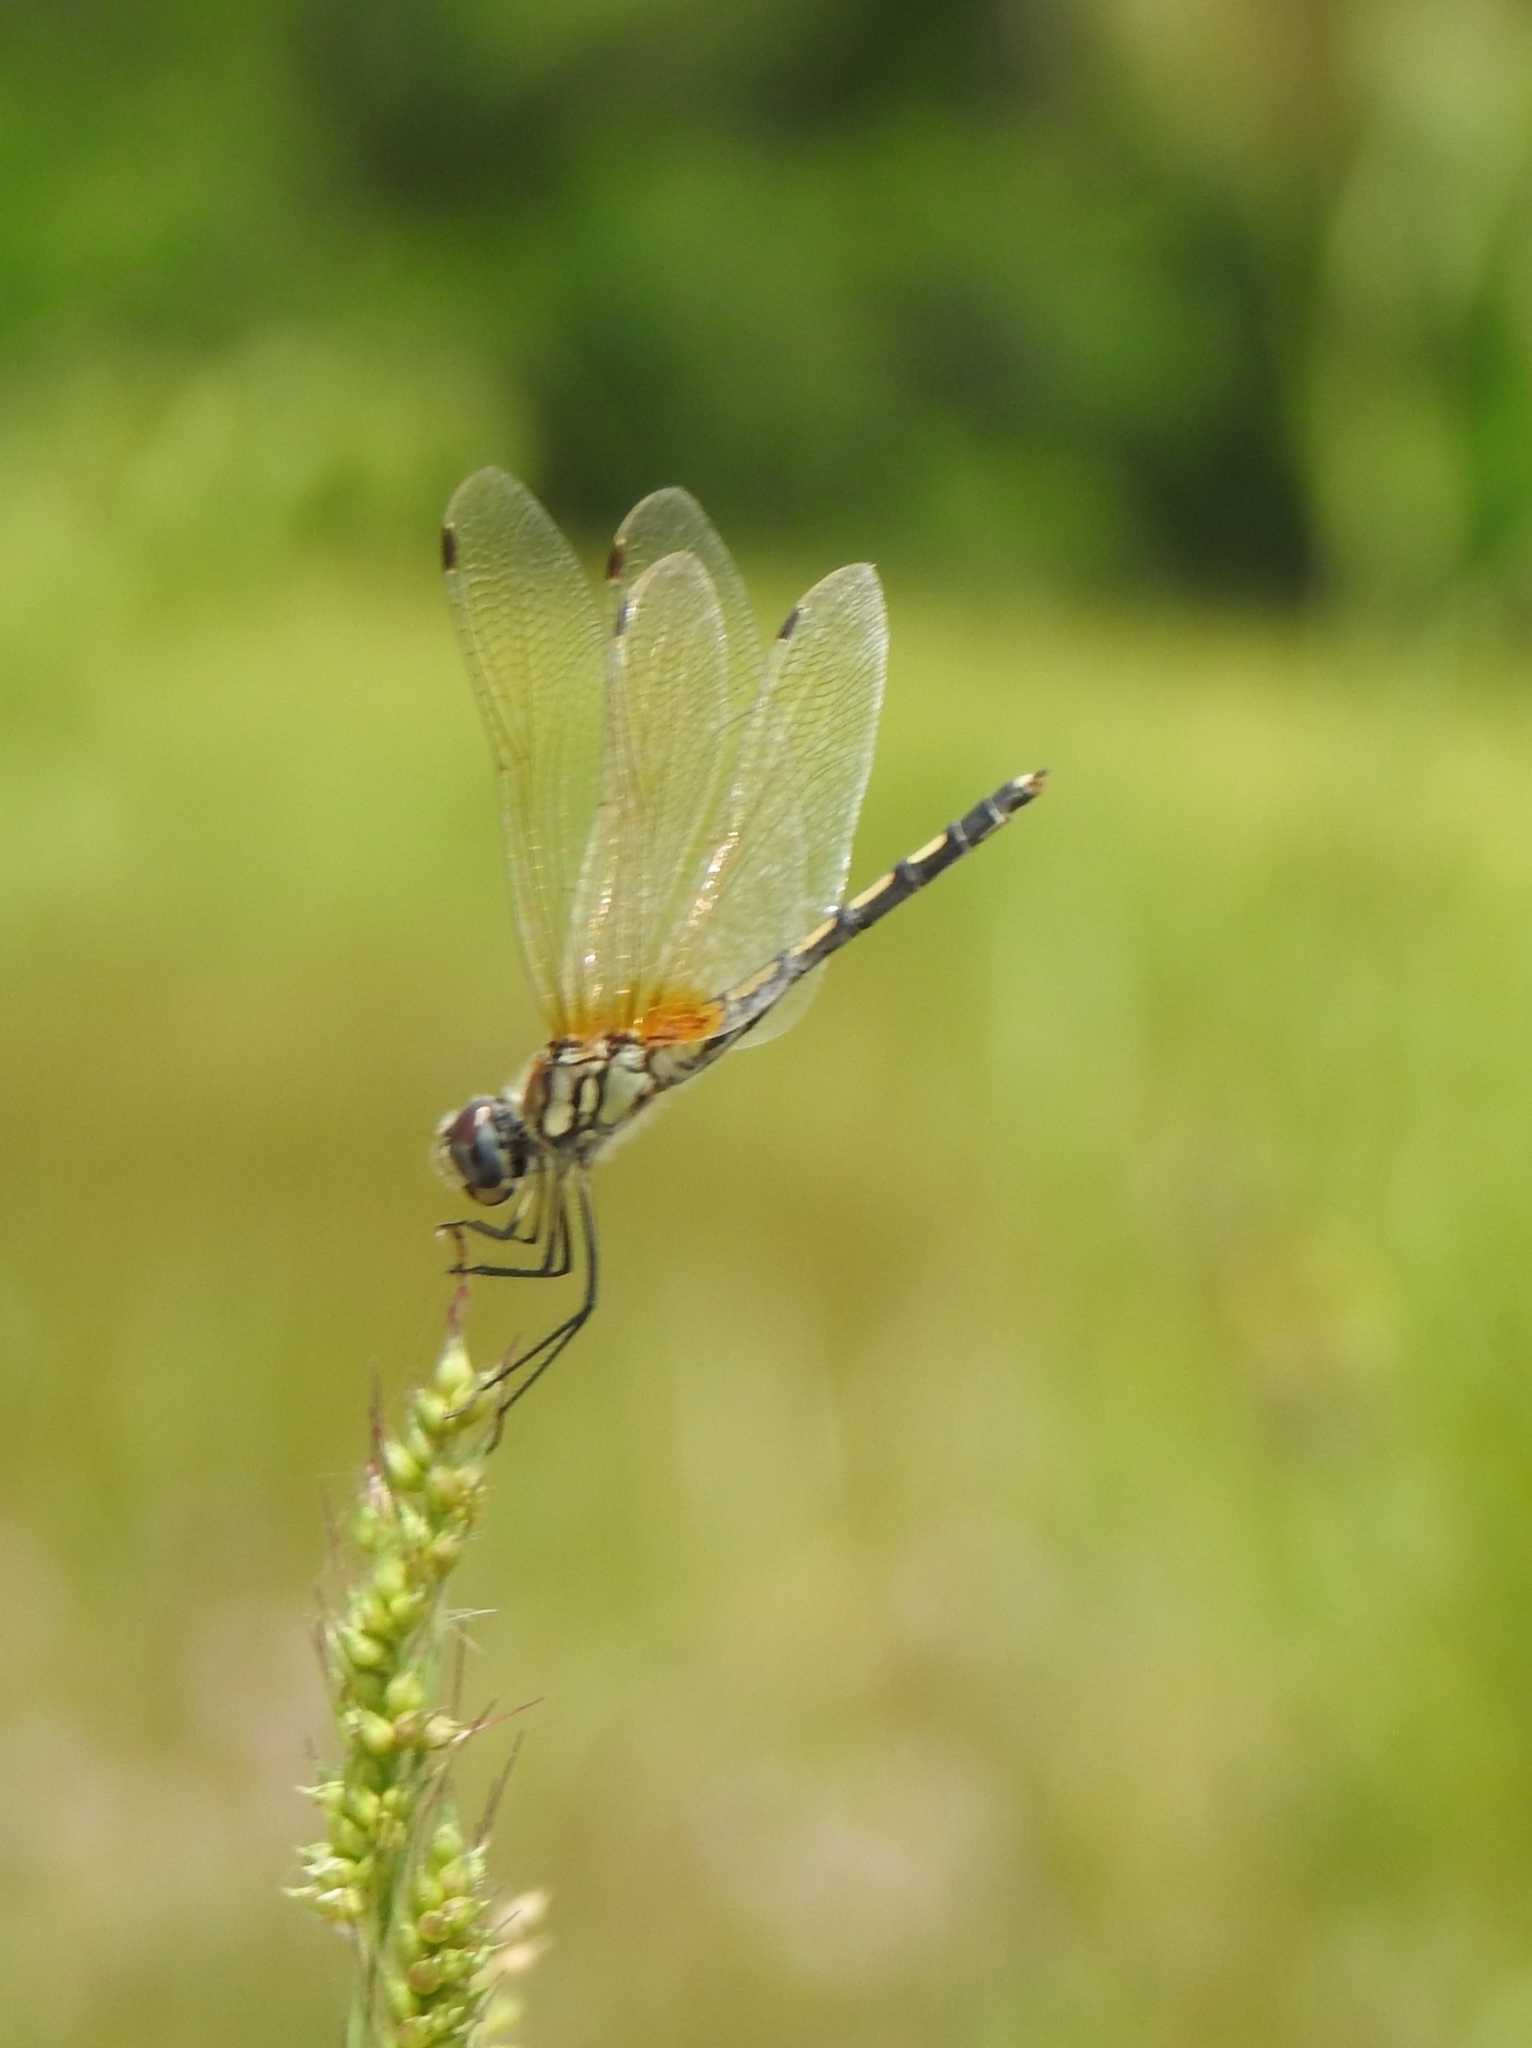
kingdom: Animalia
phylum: Arthropoda
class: Insecta
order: Odonata
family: Libellulidae
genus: Trithemis
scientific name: Trithemis pallidinervis
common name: Dancing dropwing
